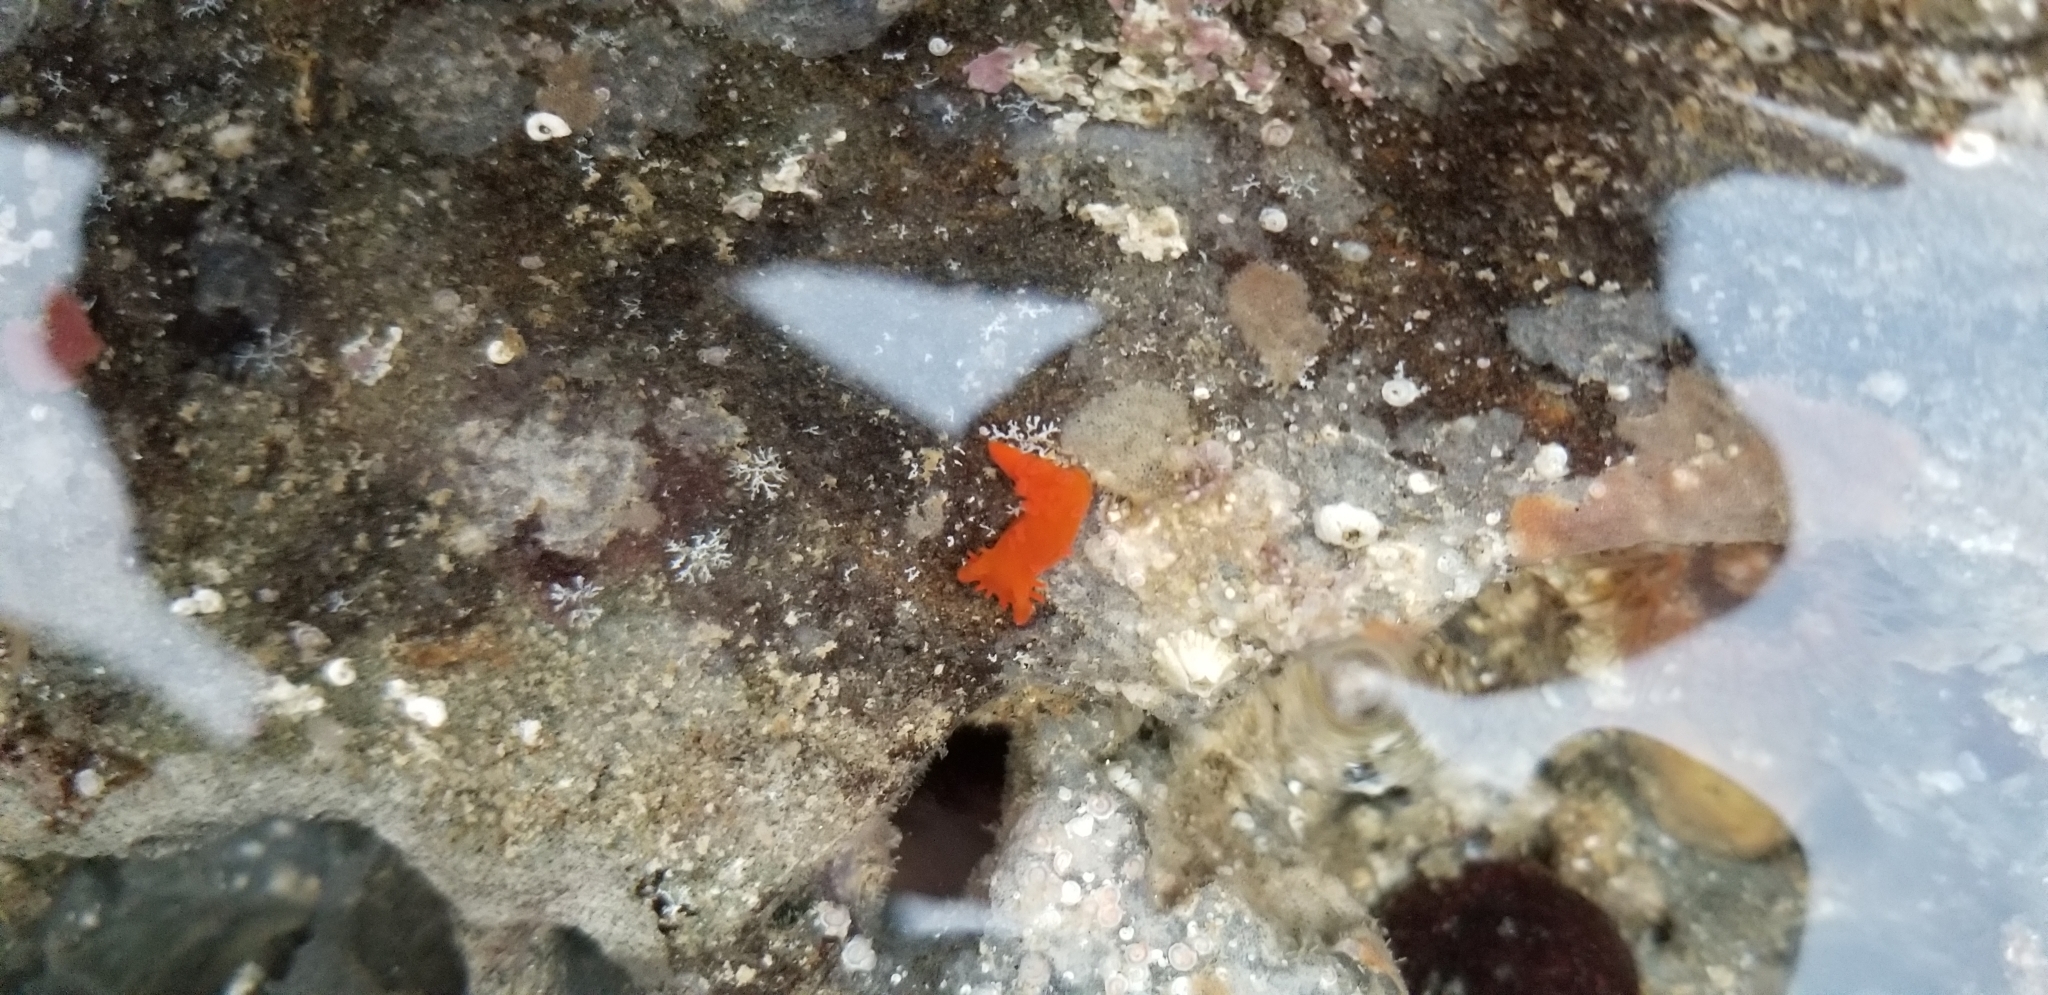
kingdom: Animalia
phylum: Mollusca
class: Gastropoda
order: Nudibranchia
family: Polyceridae
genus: Triopha
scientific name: Triopha maculata
